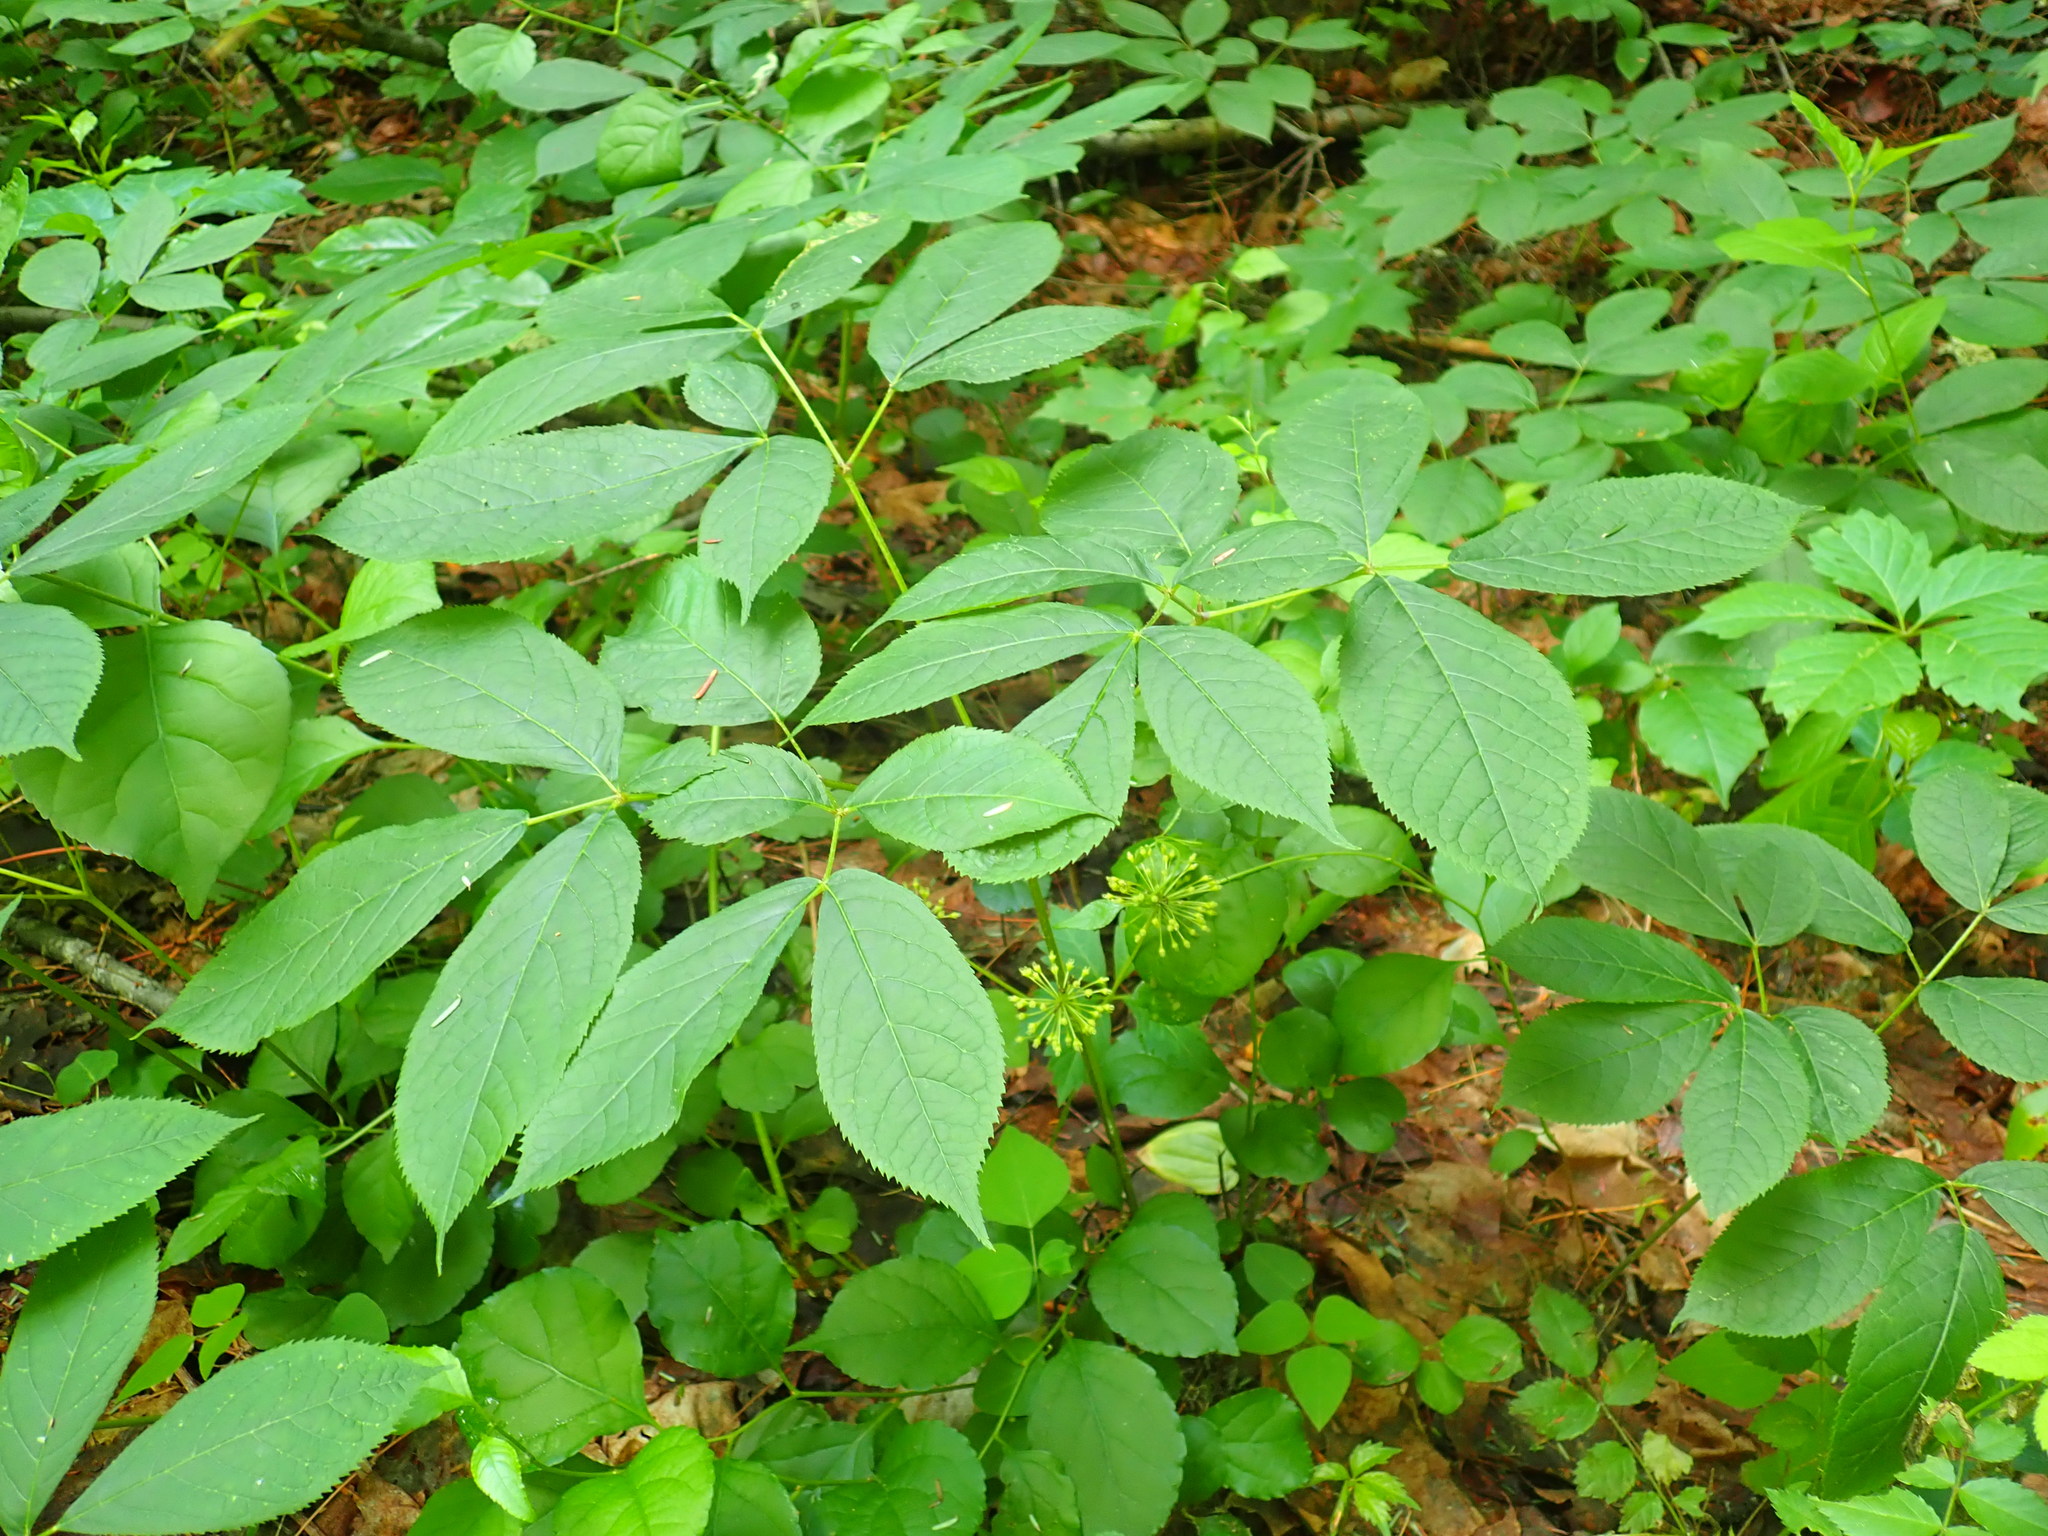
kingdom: Plantae
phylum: Tracheophyta
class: Magnoliopsida
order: Apiales
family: Araliaceae
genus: Aralia
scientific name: Aralia nudicaulis
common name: Wild sarsaparilla
